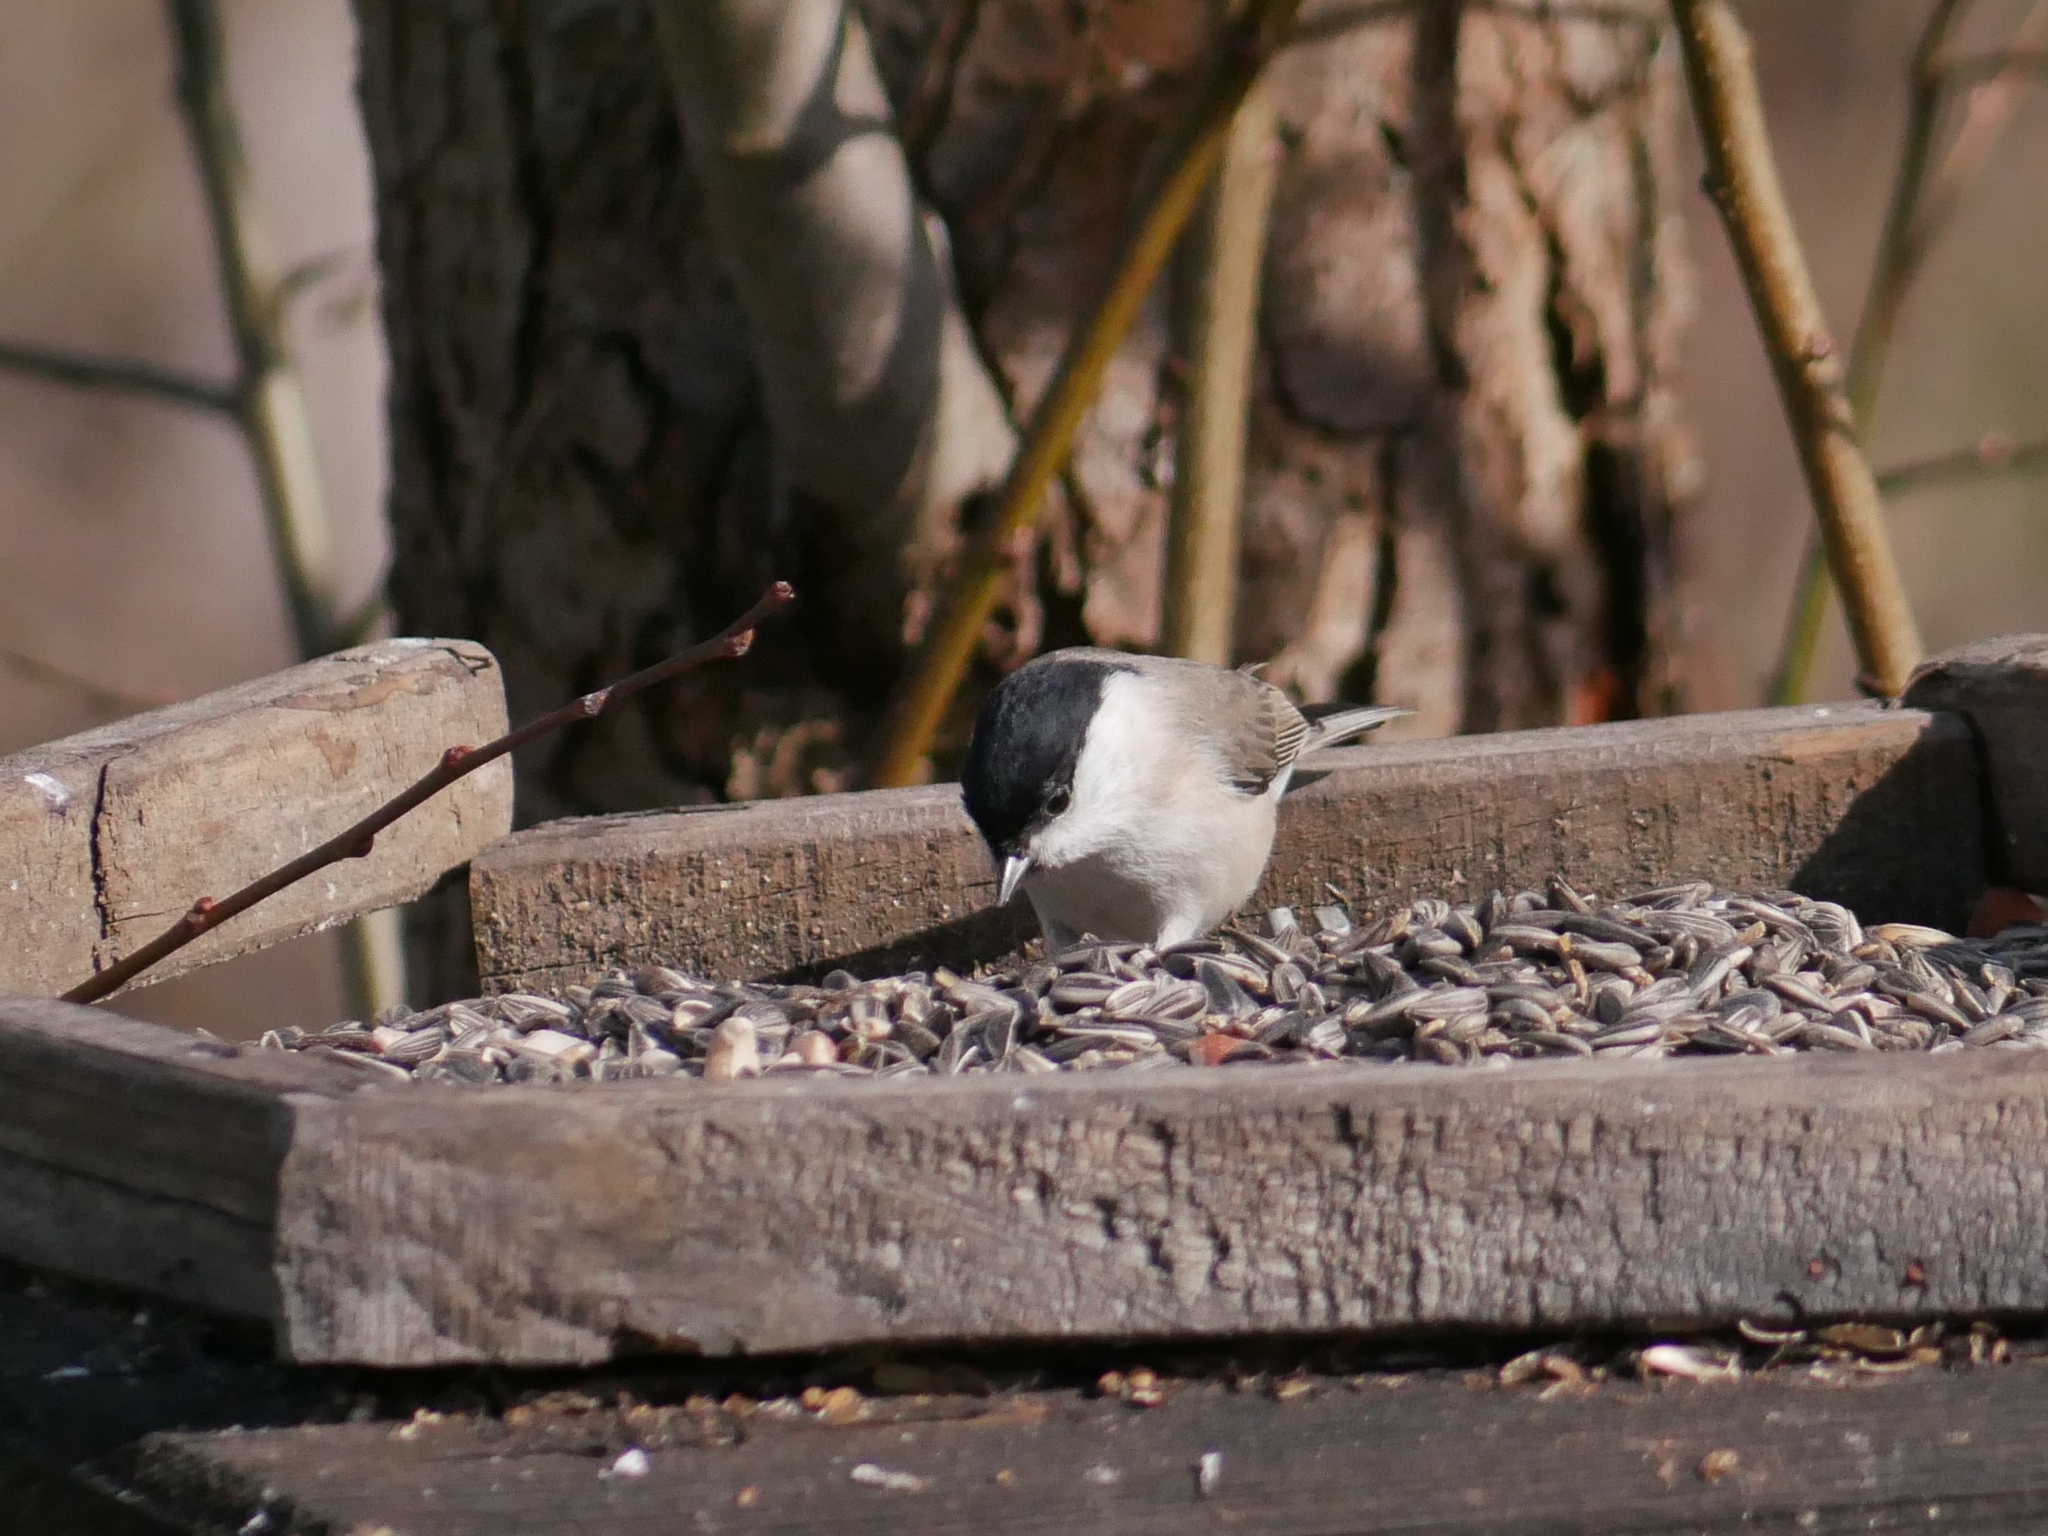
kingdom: Animalia
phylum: Chordata
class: Aves
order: Passeriformes
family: Paridae
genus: Poecile
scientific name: Poecile palustris
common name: Marsh tit
